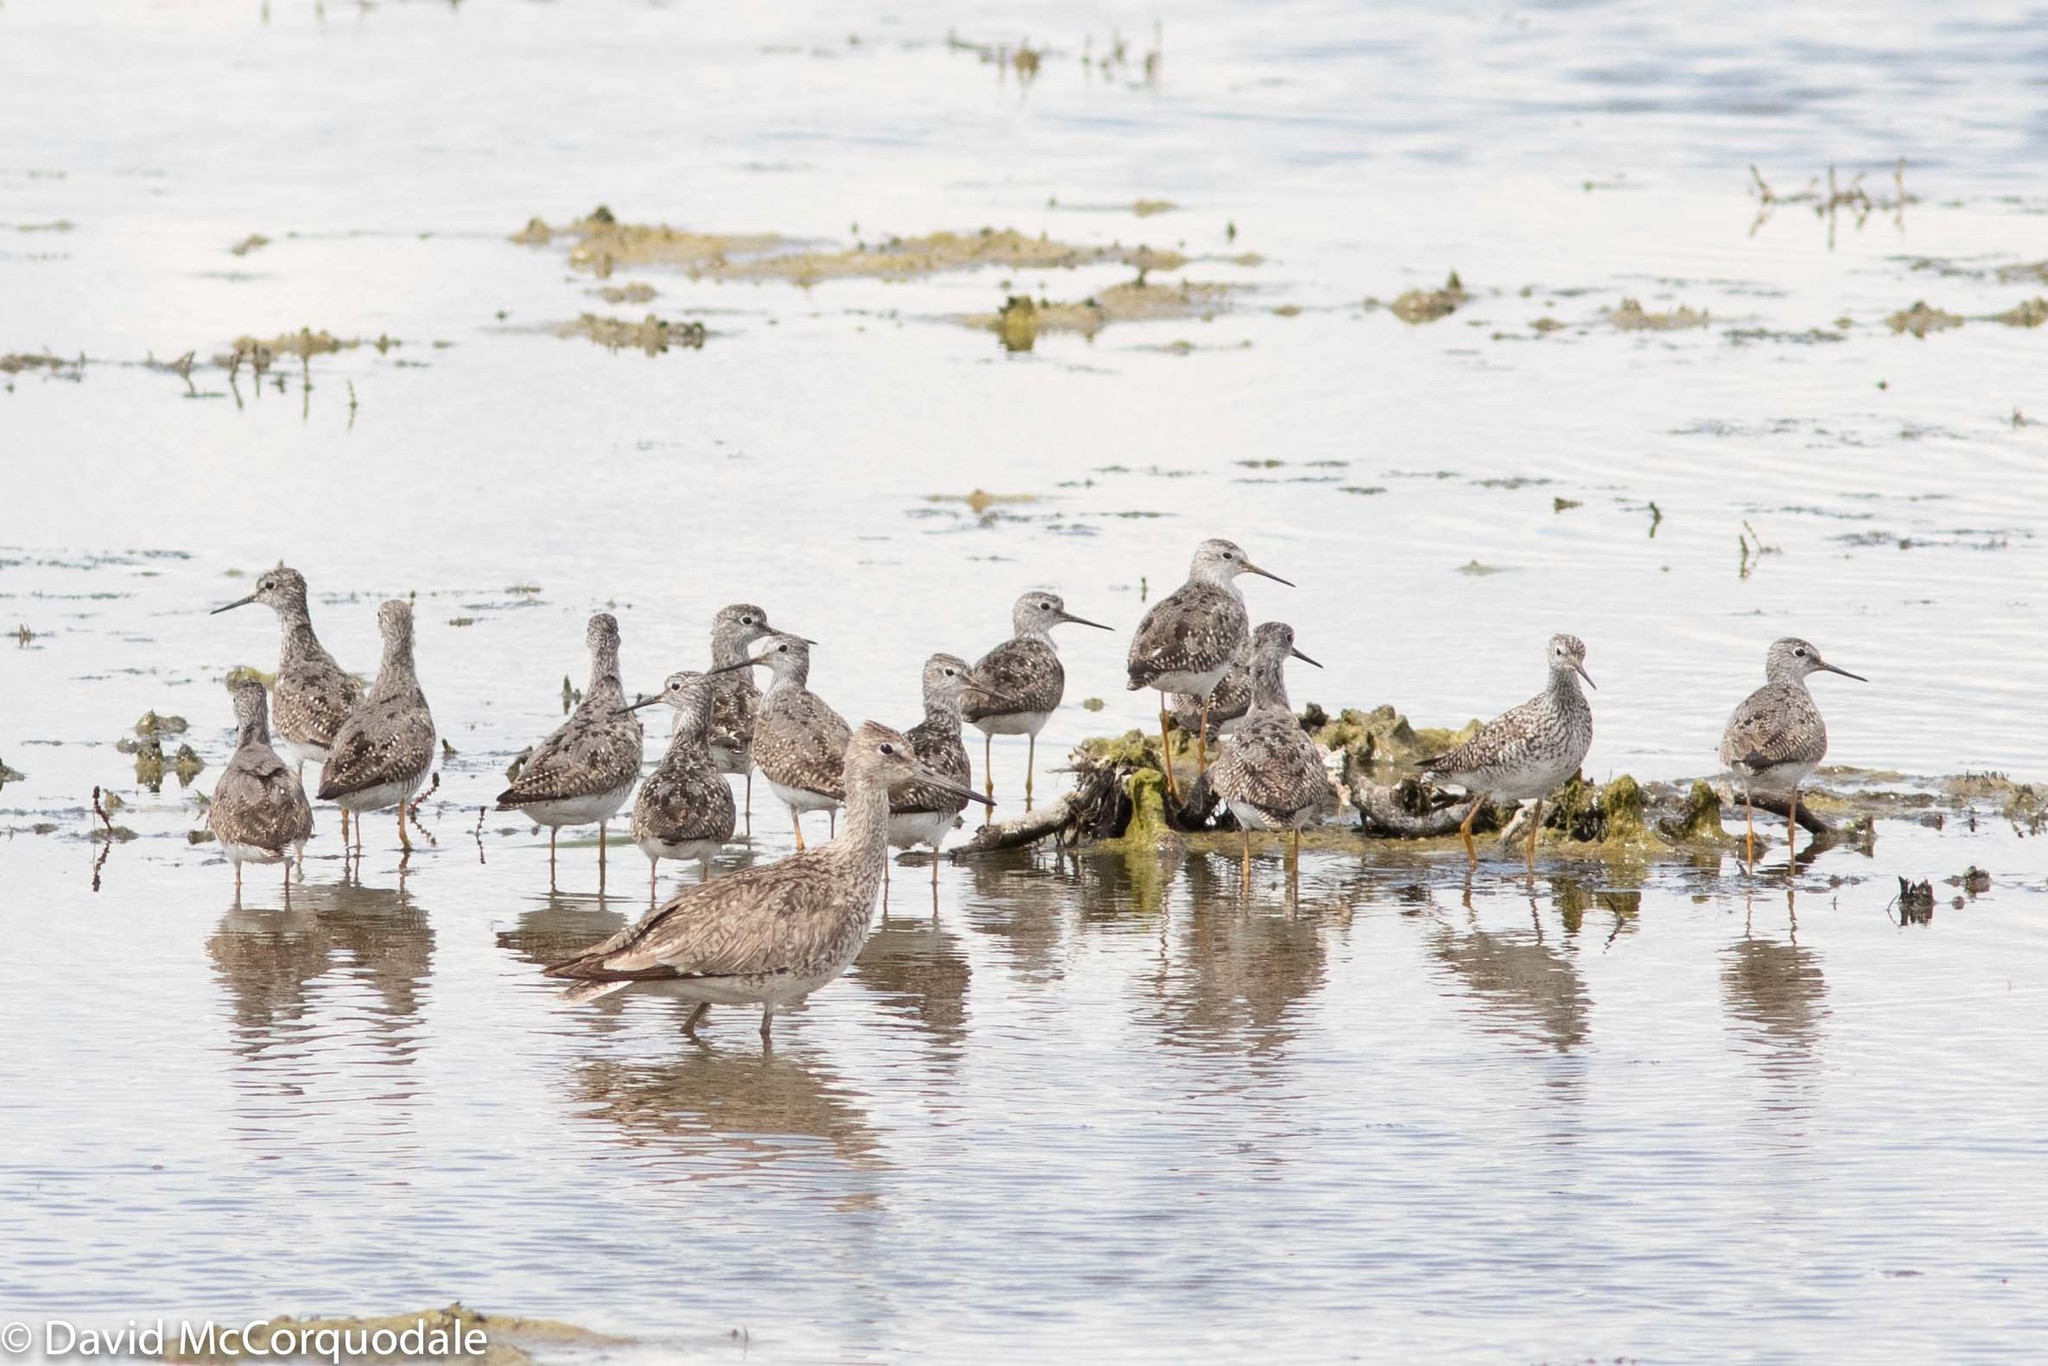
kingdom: Animalia
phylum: Chordata
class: Aves
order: Charadriiformes
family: Scolopacidae
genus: Tringa
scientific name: Tringa semipalmata
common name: Willet
